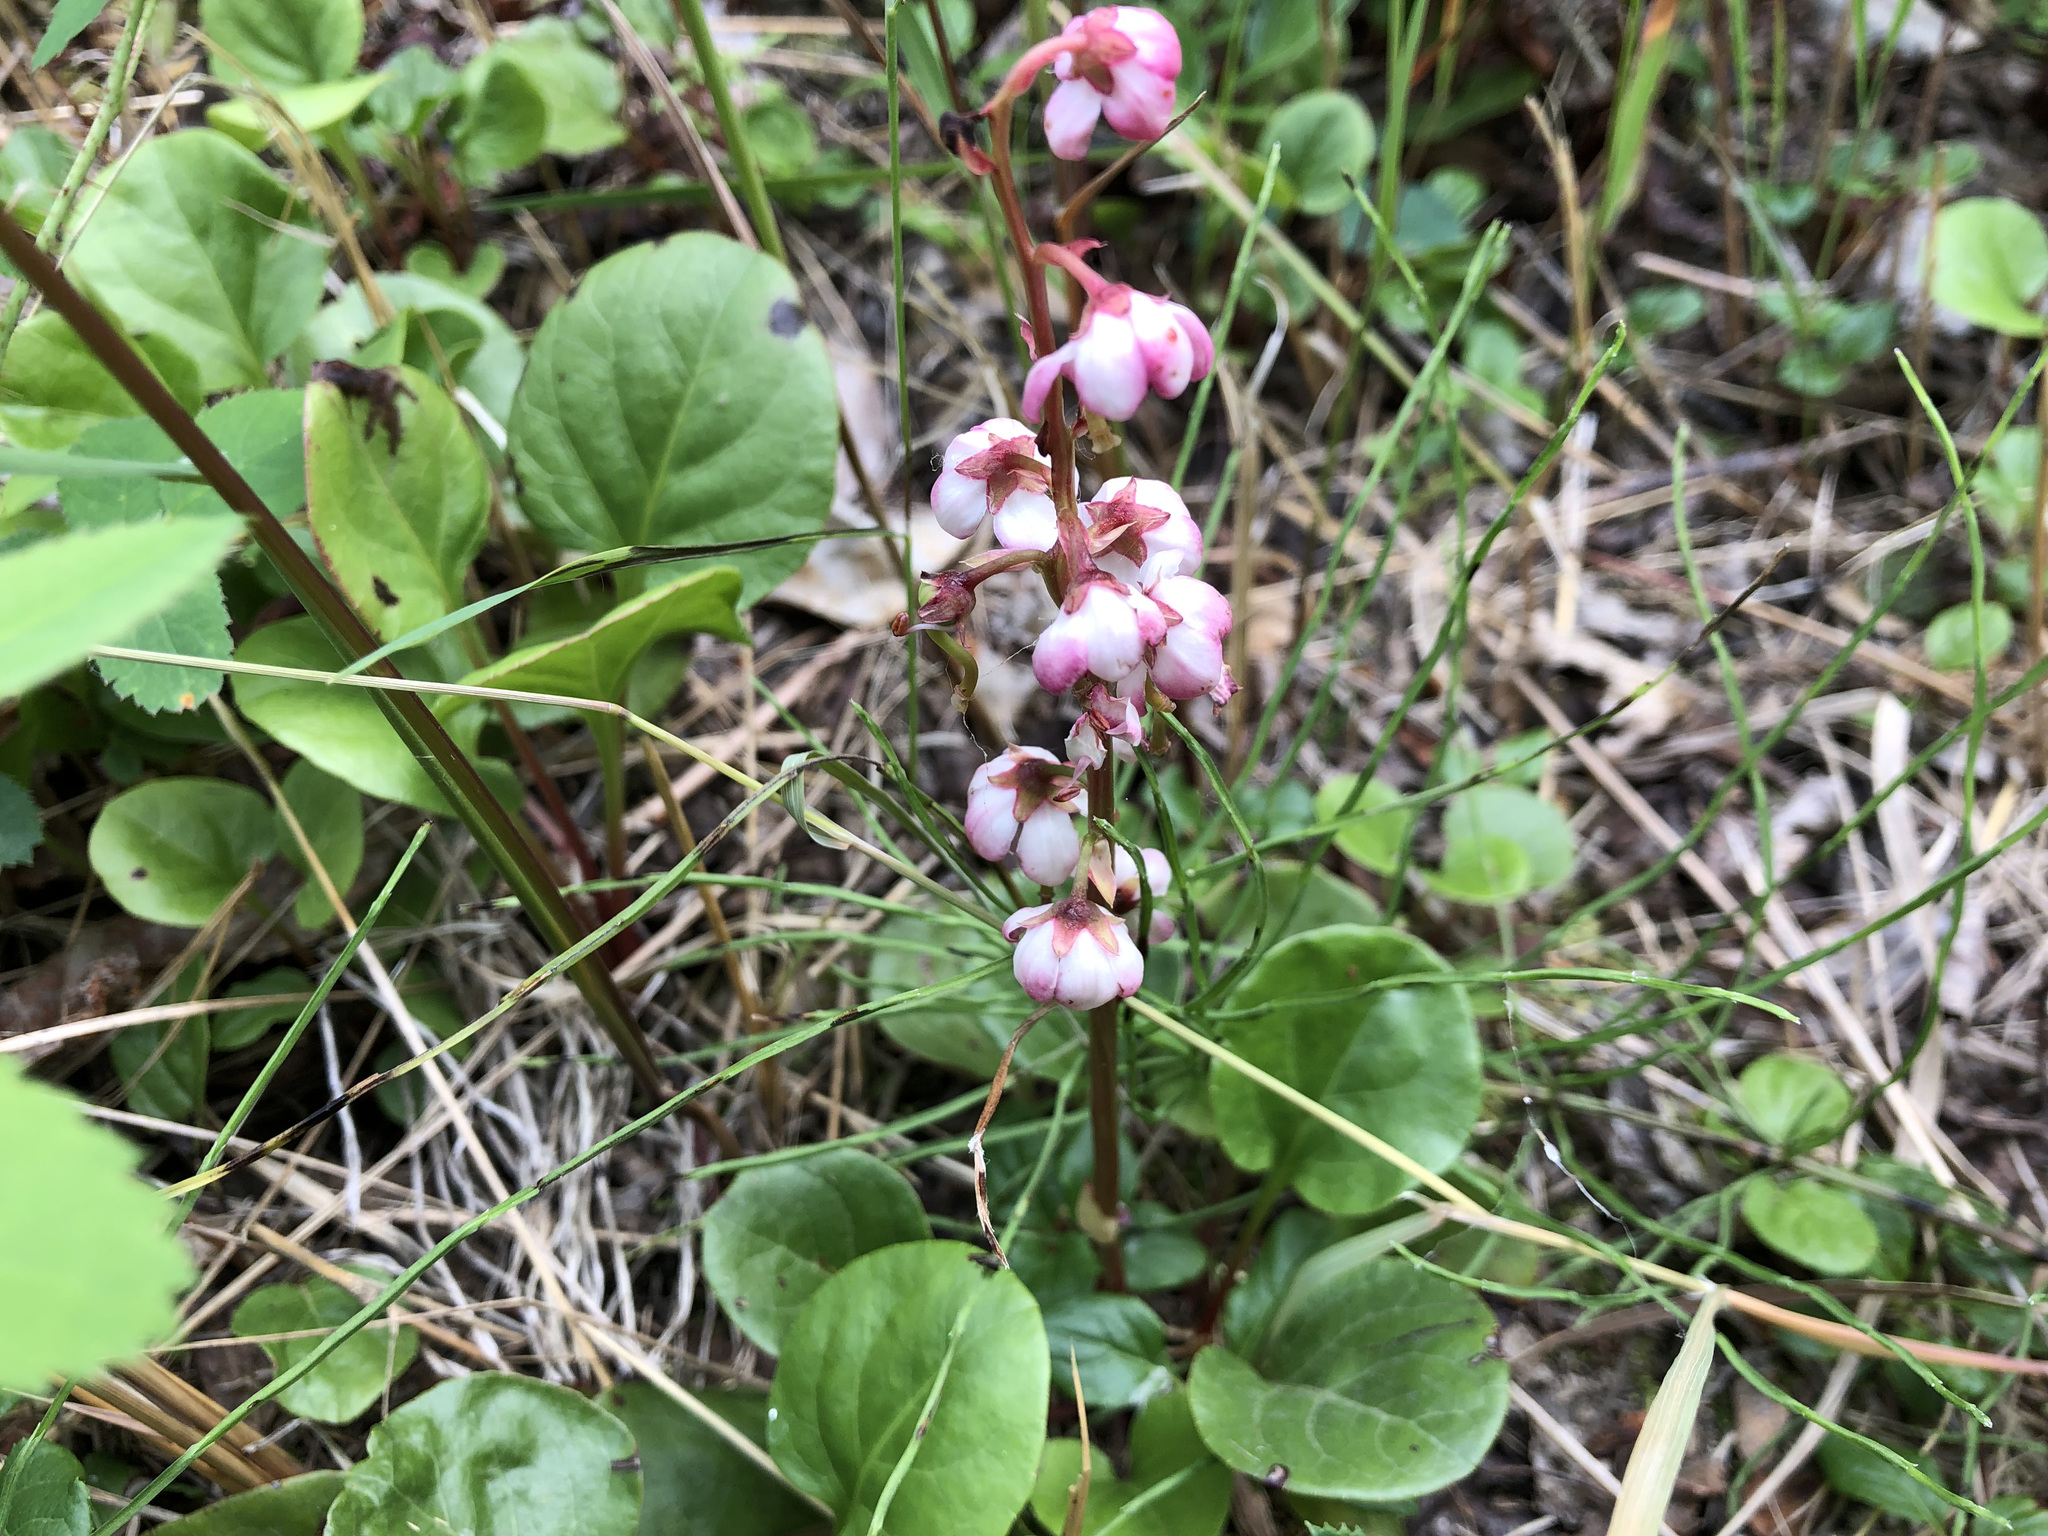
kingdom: Plantae
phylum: Tracheophyta
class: Magnoliopsida
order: Ericales
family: Ericaceae
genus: Pyrola
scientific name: Pyrola asarifolia
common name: Bog wintergreen
